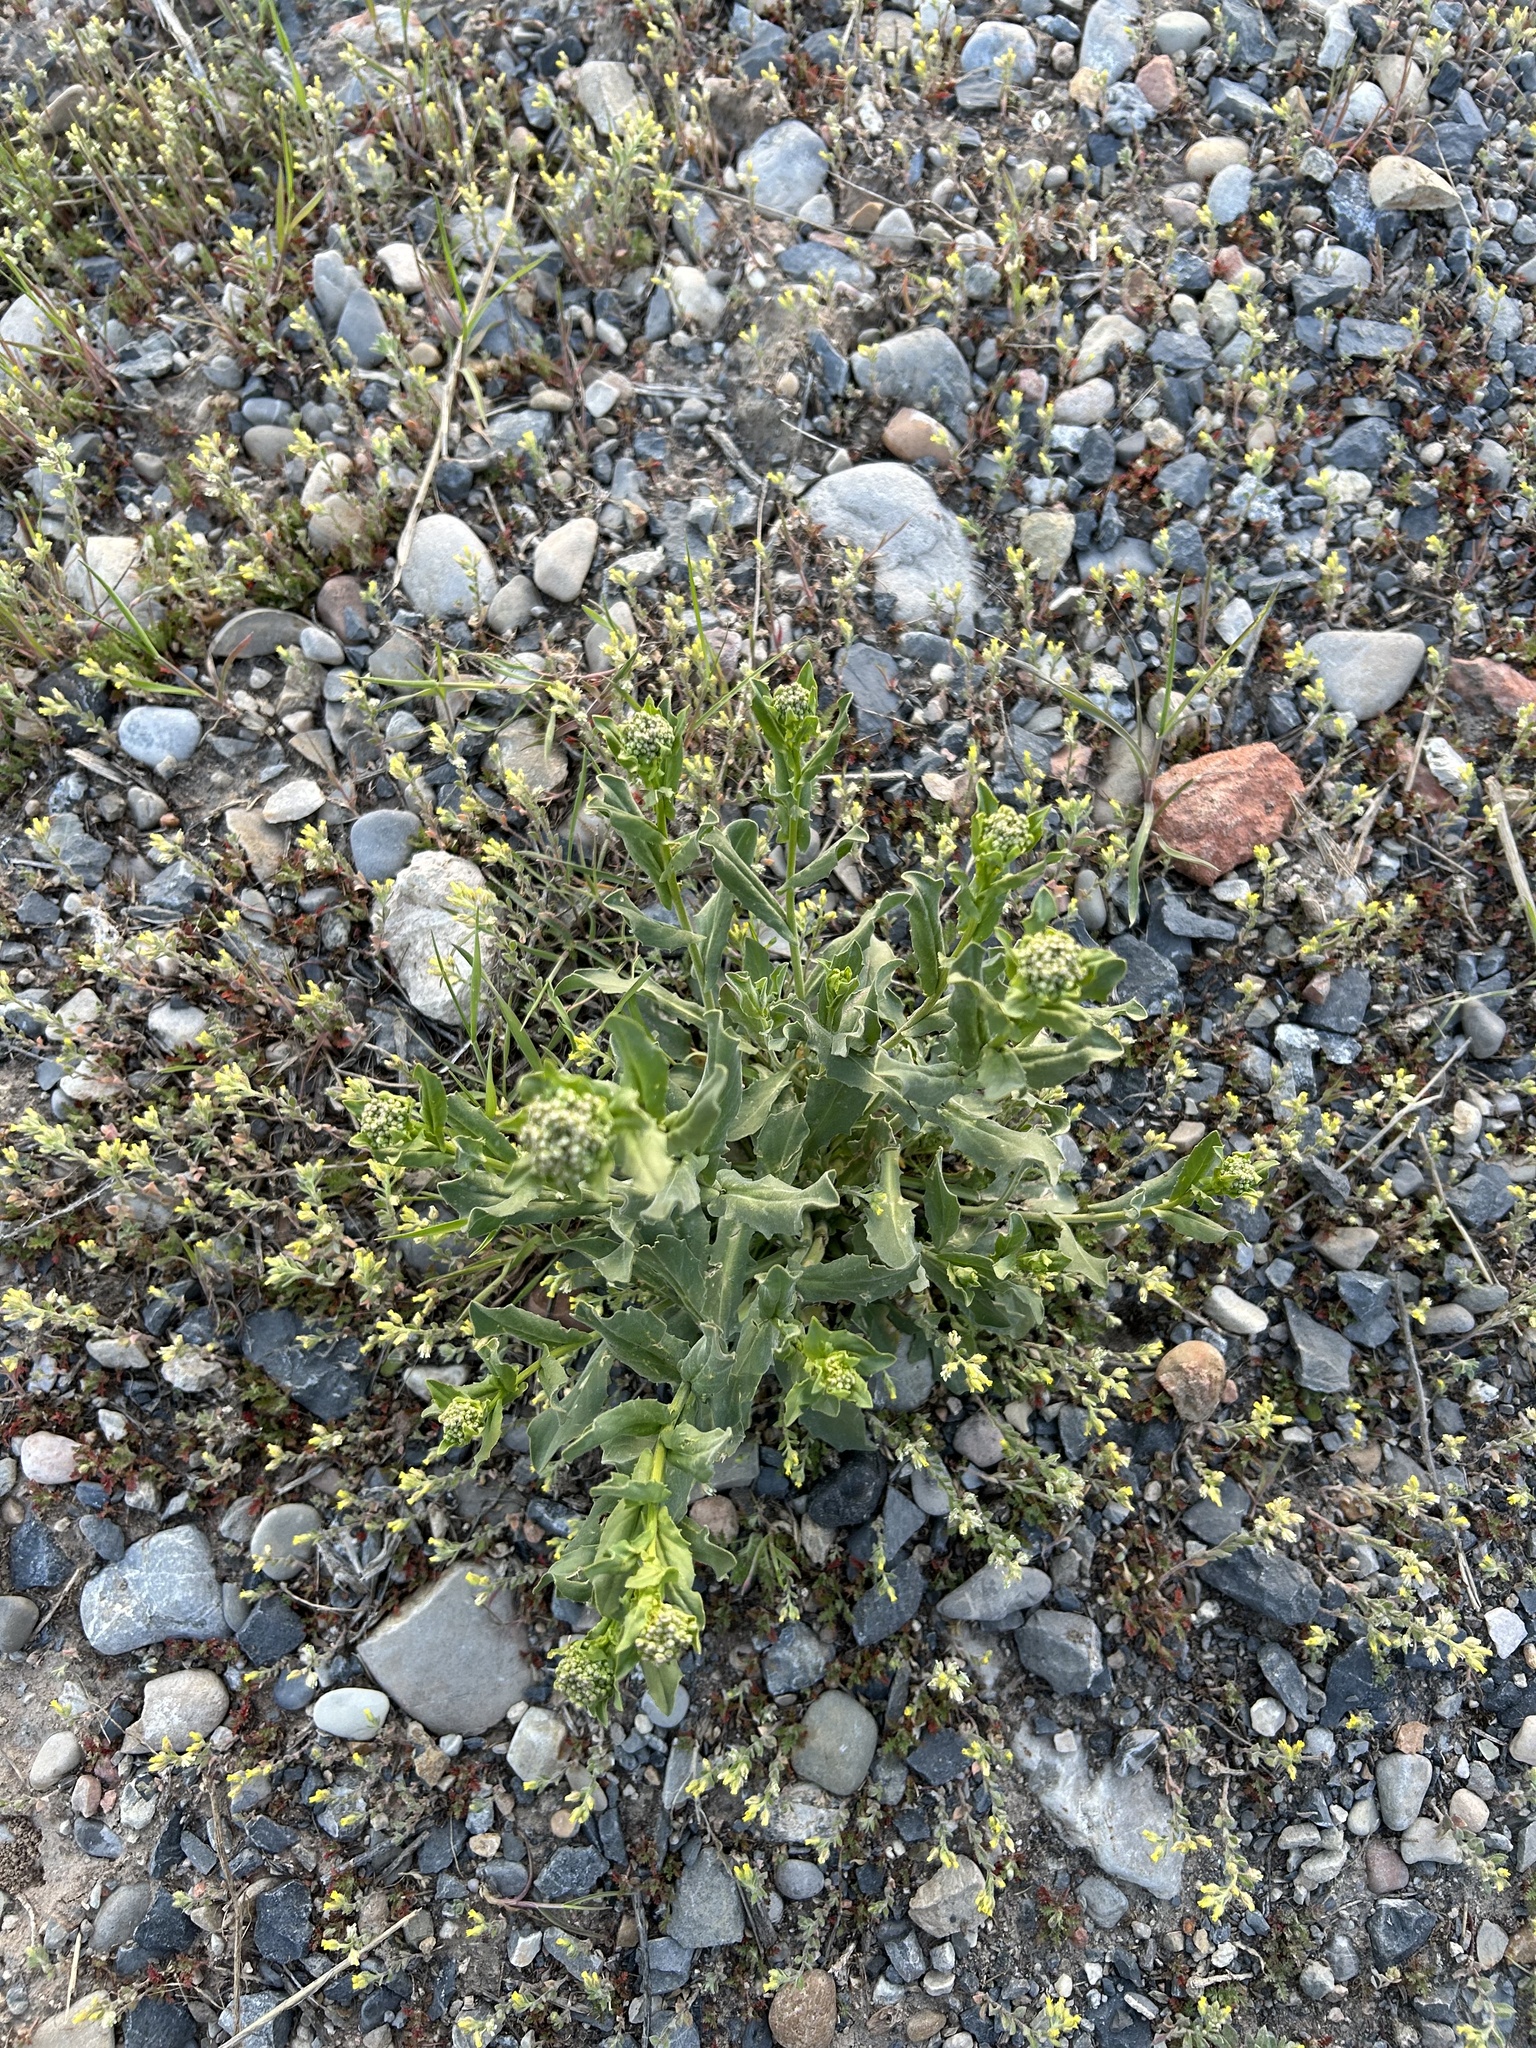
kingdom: Plantae
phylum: Tracheophyta
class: Magnoliopsida
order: Brassicales
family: Brassicaceae
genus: Lepidium
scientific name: Lepidium draba
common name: Hoary cress
